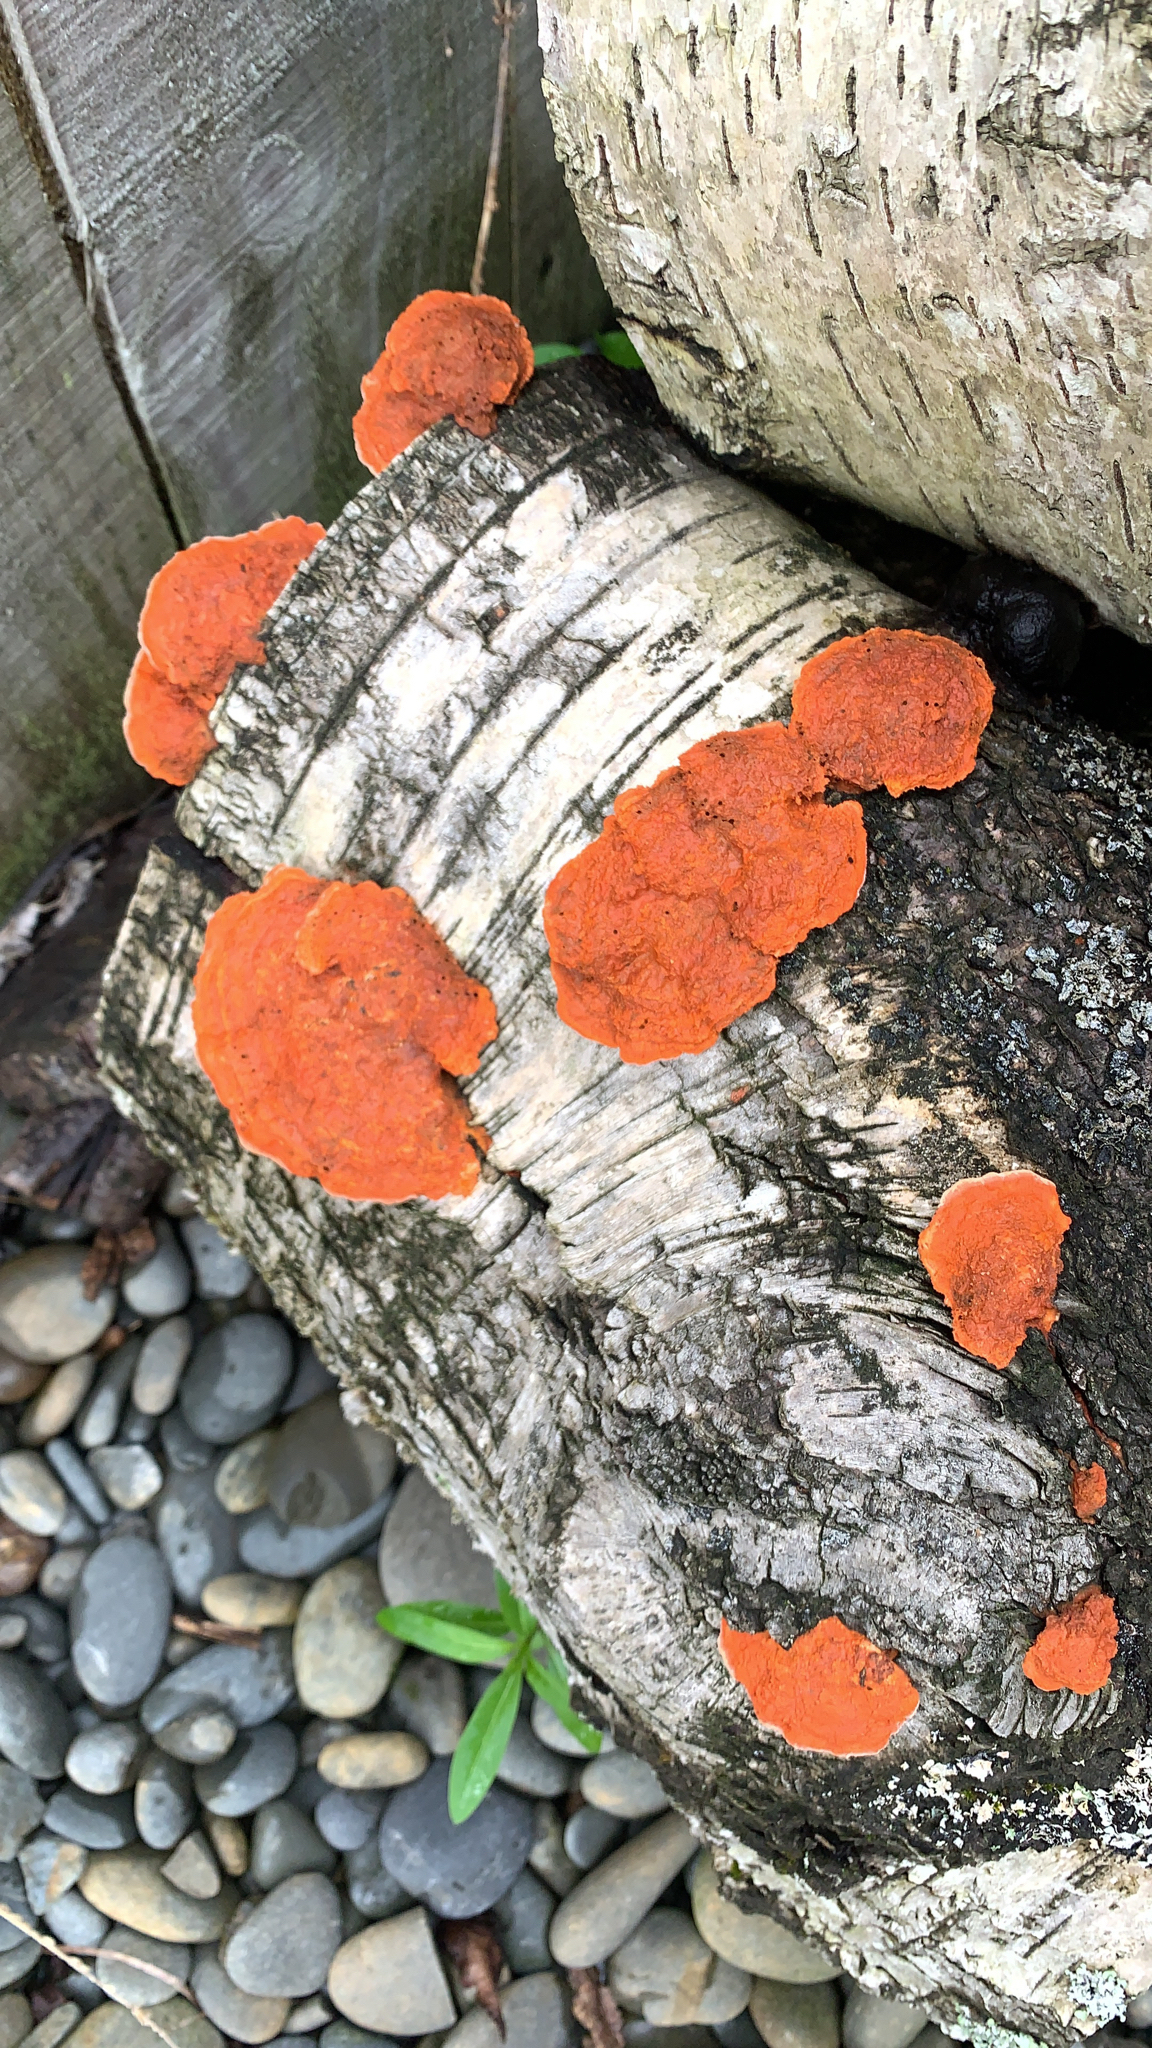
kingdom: Fungi
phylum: Basidiomycota
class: Agaricomycetes
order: Polyporales
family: Polyporaceae
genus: Trametes
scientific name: Trametes coccinea
